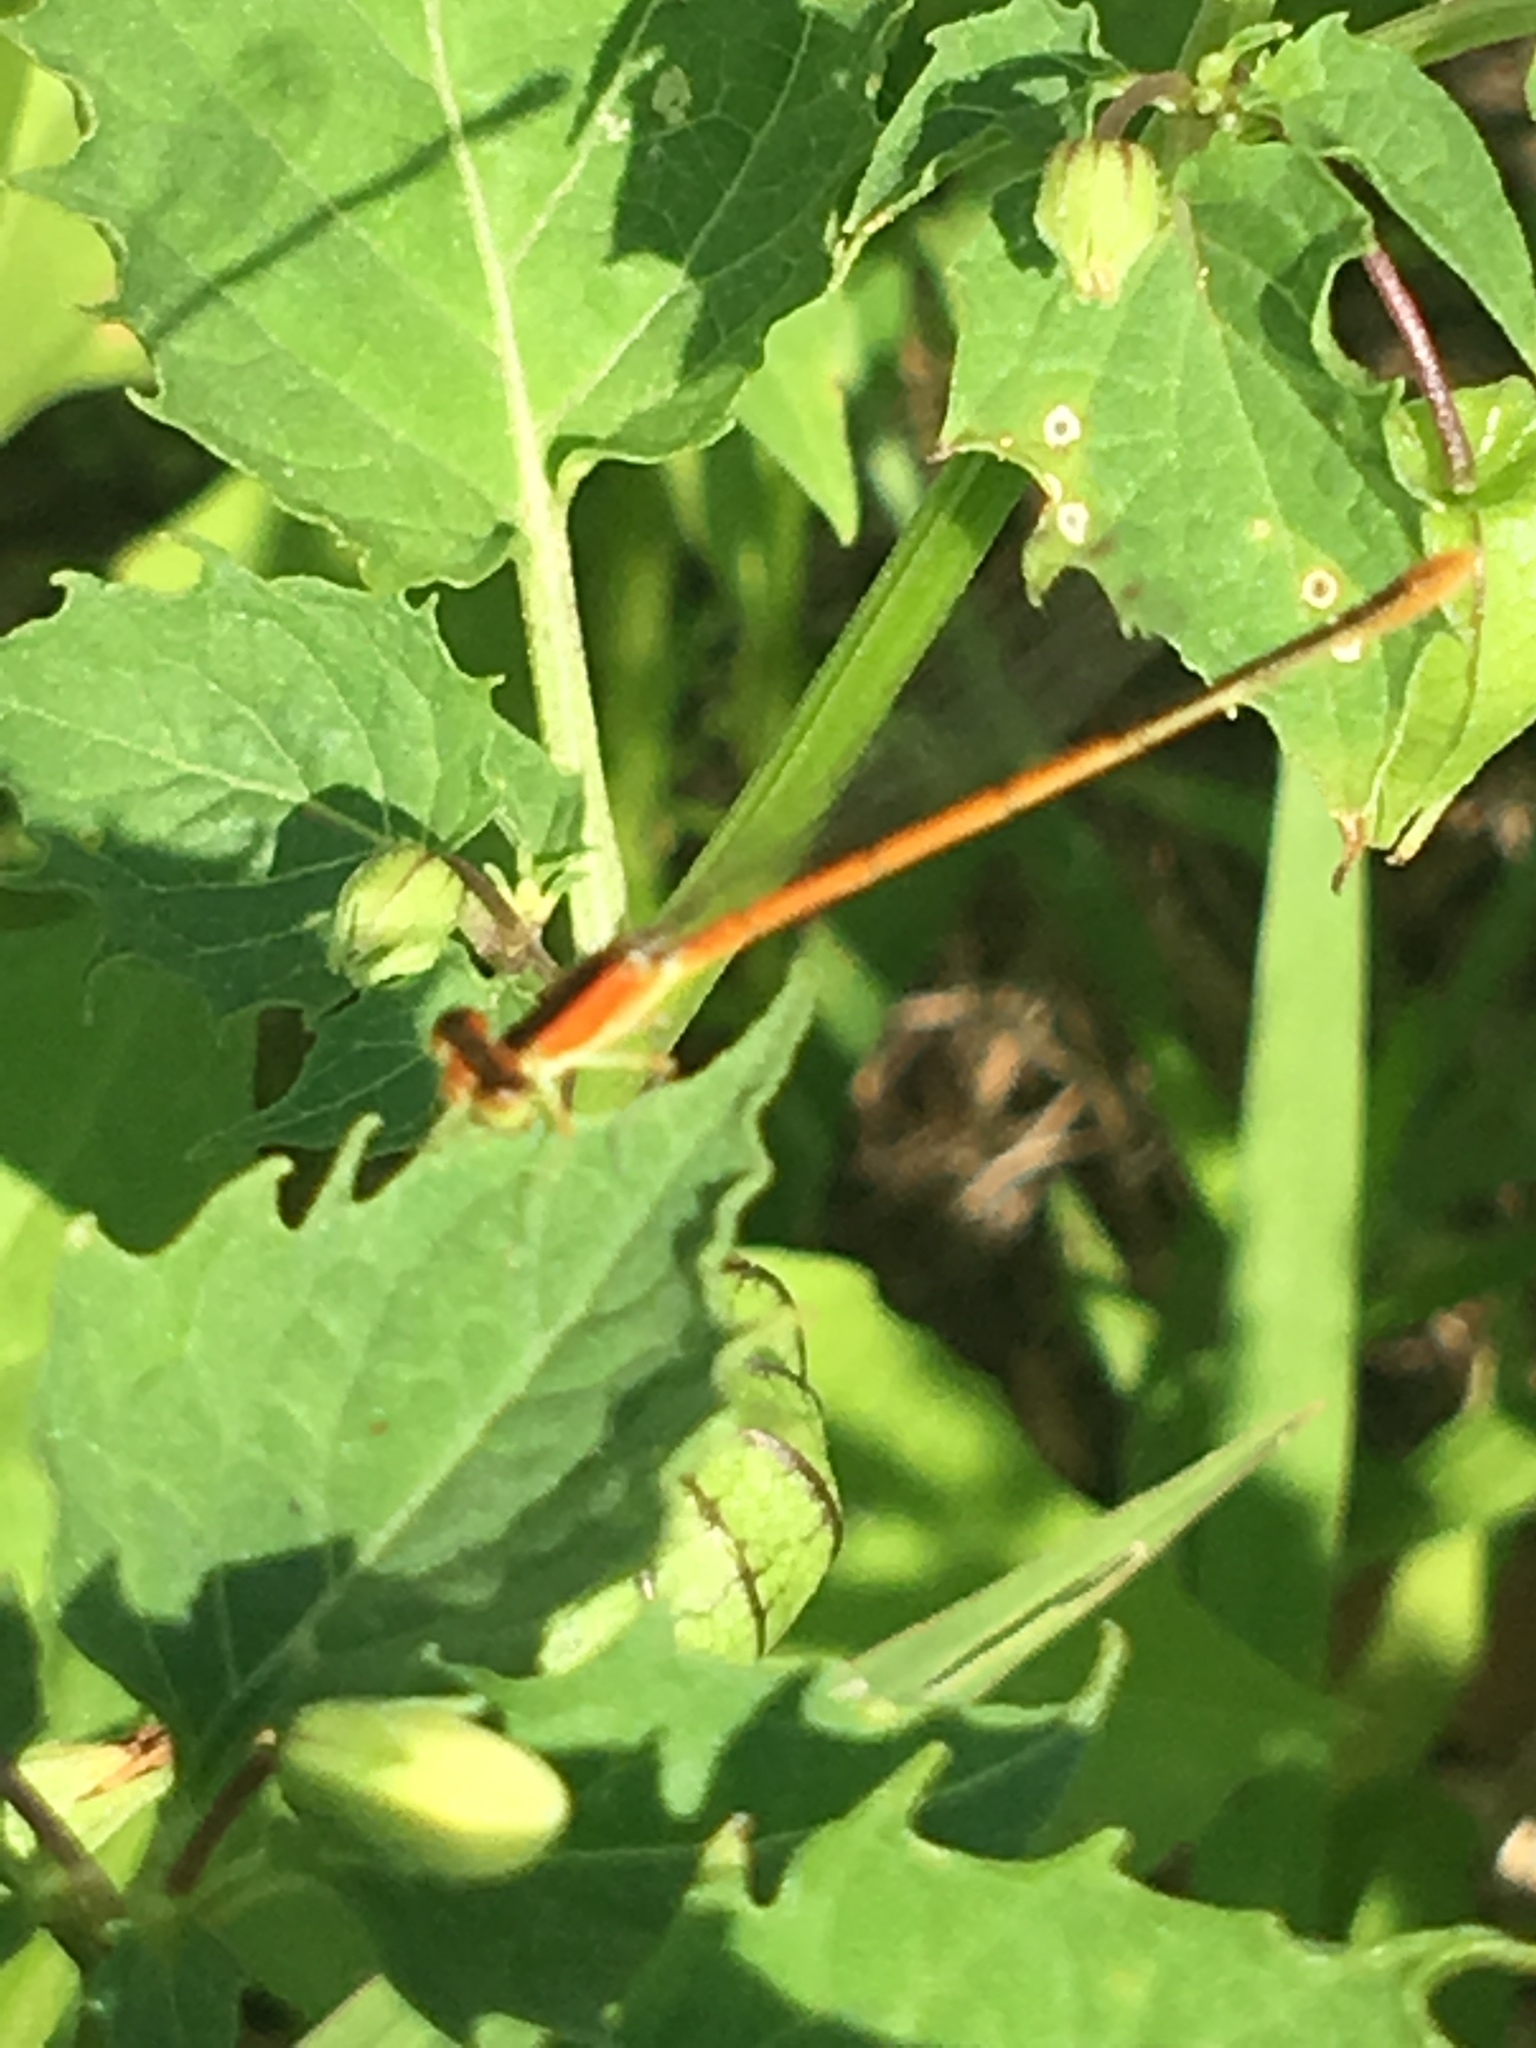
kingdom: Animalia
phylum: Arthropoda
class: Insecta
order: Odonata
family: Coenagrionidae
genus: Ischnura
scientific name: Ischnura hastata
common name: Citrine forktail
